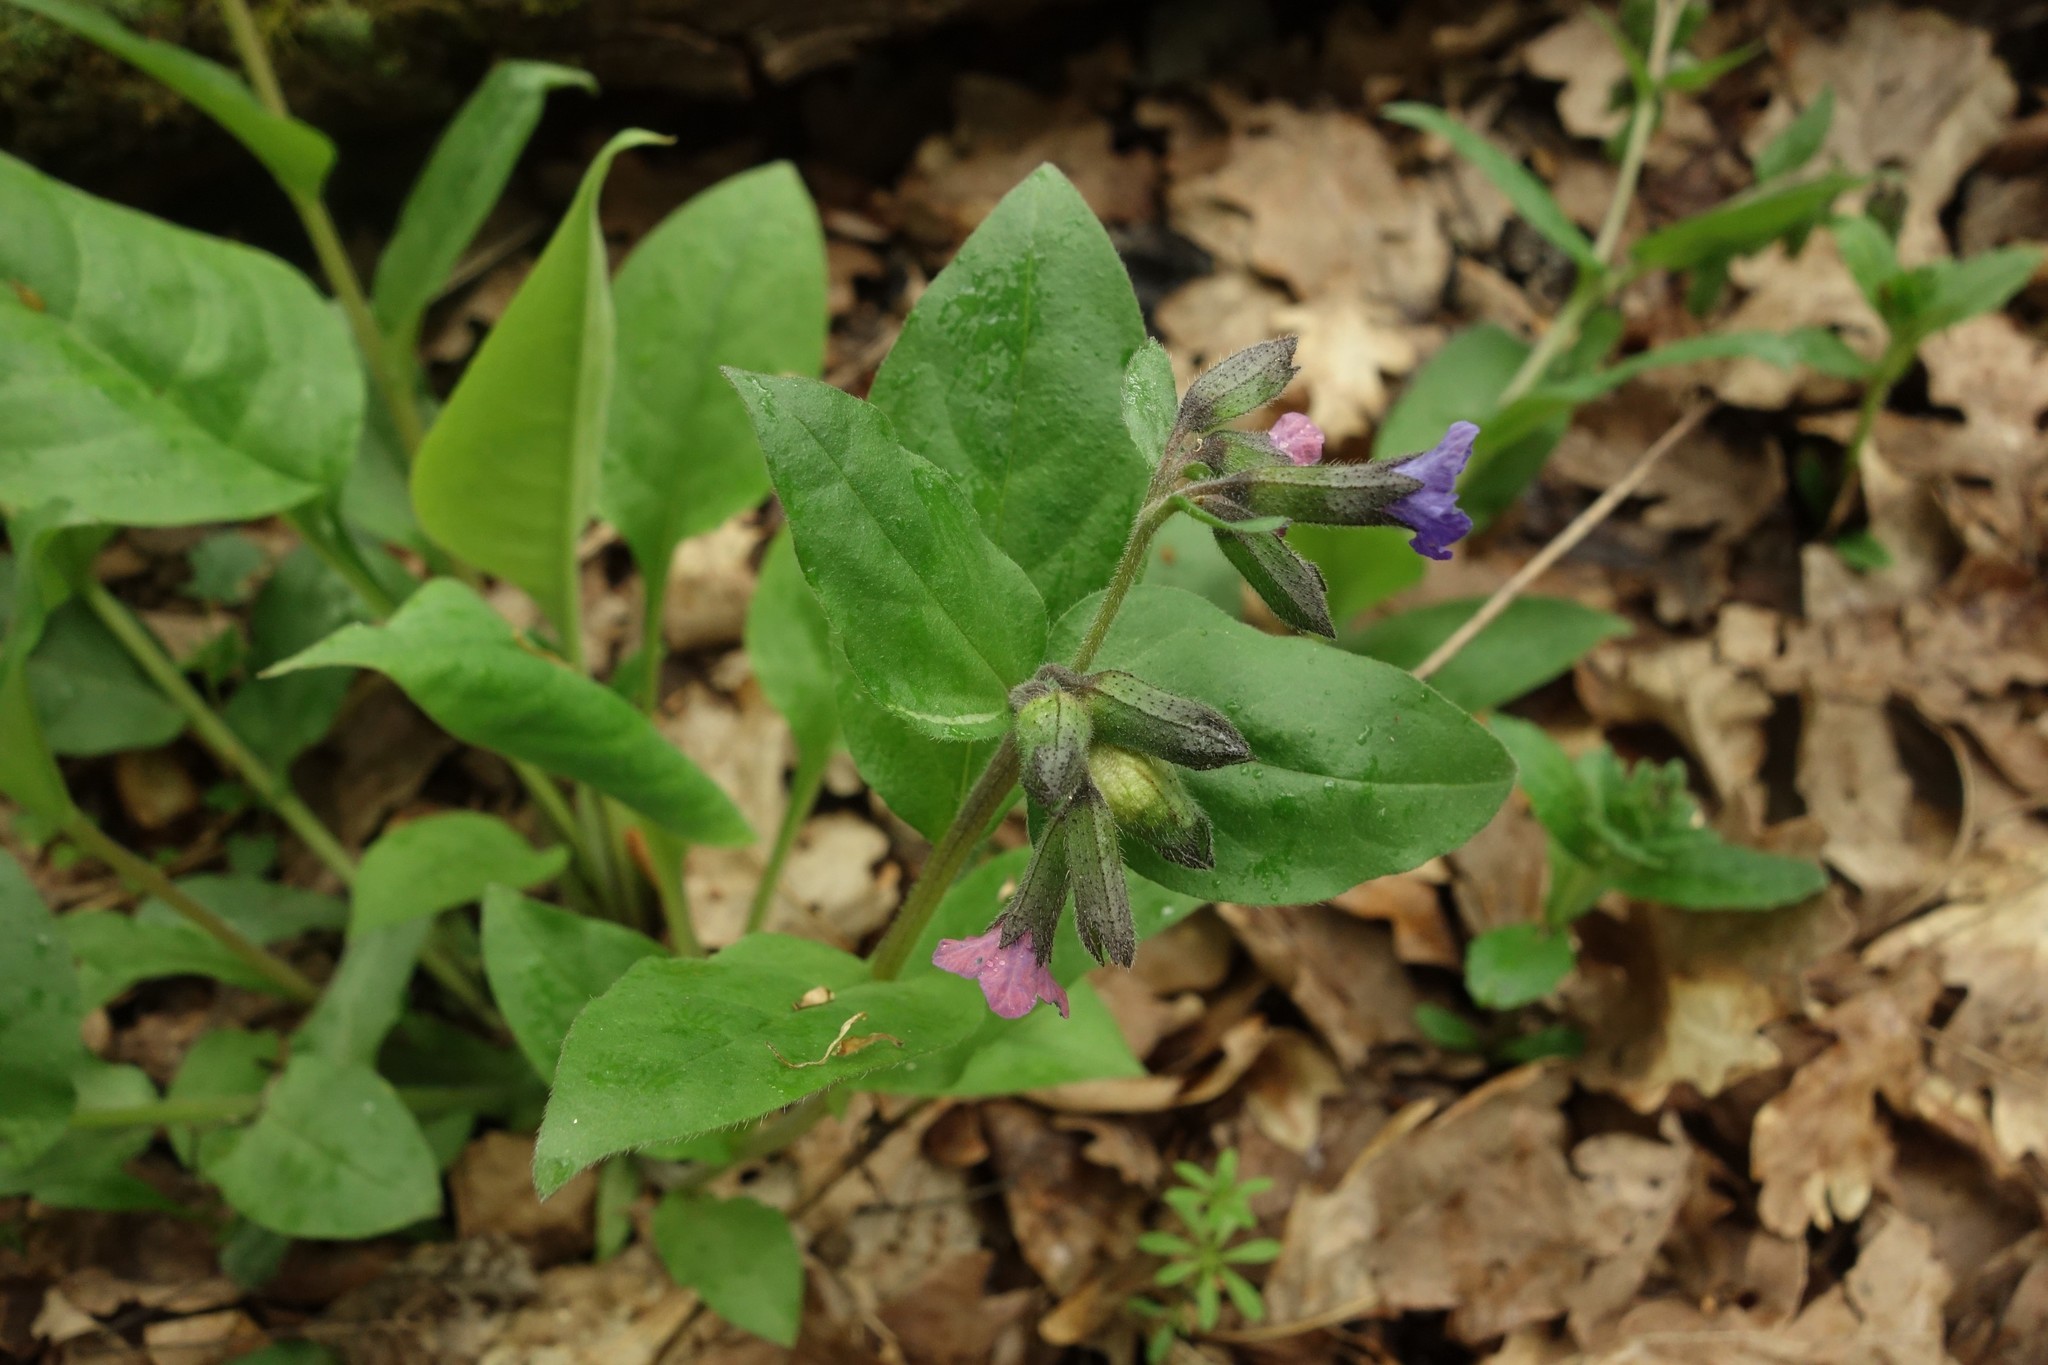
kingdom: Plantae
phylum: Tracheophyta
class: Magnoliopsida
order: Boraginales
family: Boraginaceae
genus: Pulmonaria
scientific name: Pulmonaria obscura
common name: Suffolk lungwort
